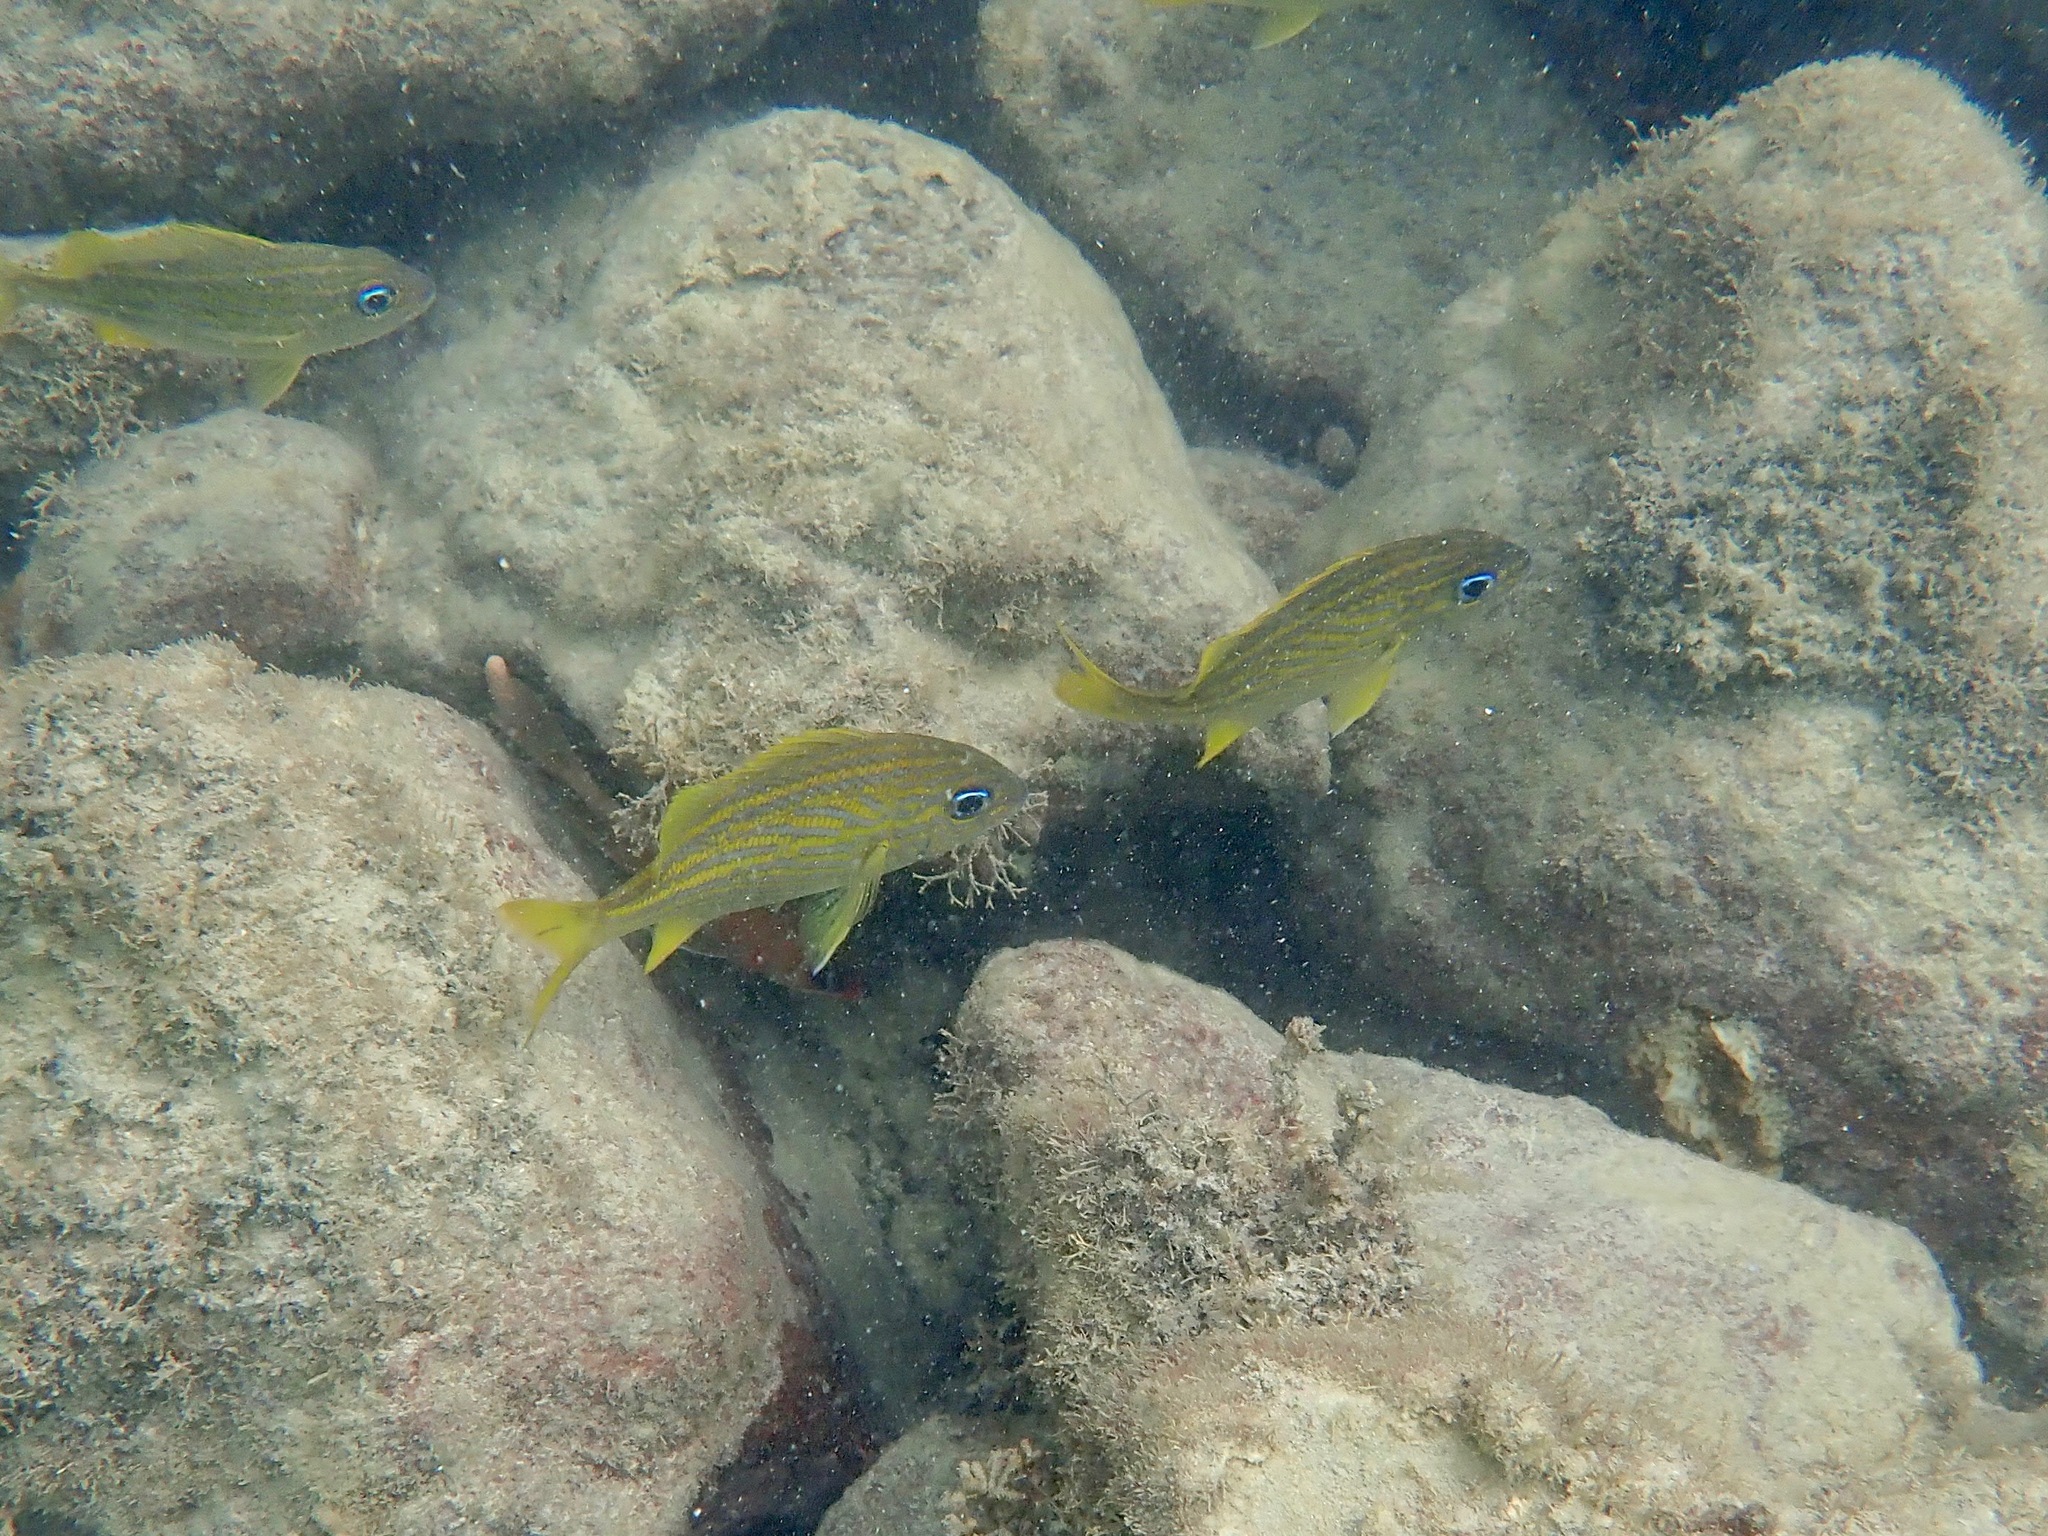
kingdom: Animalia
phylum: Chordata
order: Perciformes
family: Haemulidae
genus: Haemulon
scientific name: Haemulon flavolineatum
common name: French grunt
